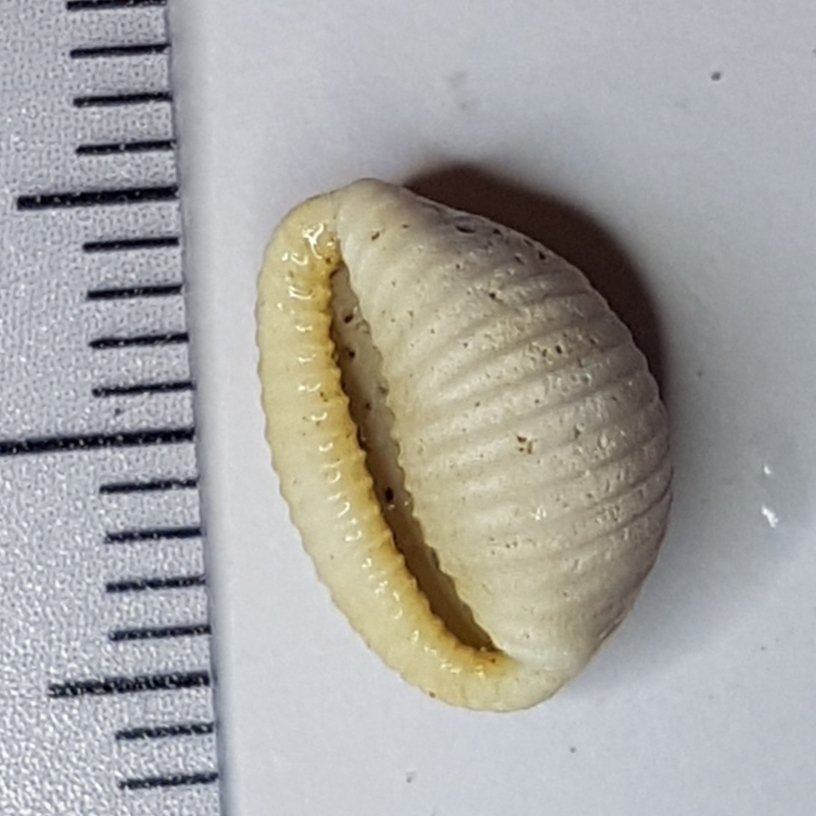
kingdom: Animalia
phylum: Mollusca
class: Gastropoda
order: Littorinimorpha
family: Triviidae
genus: Trivia
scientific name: Trivia monacha
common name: Spotted cowrie
